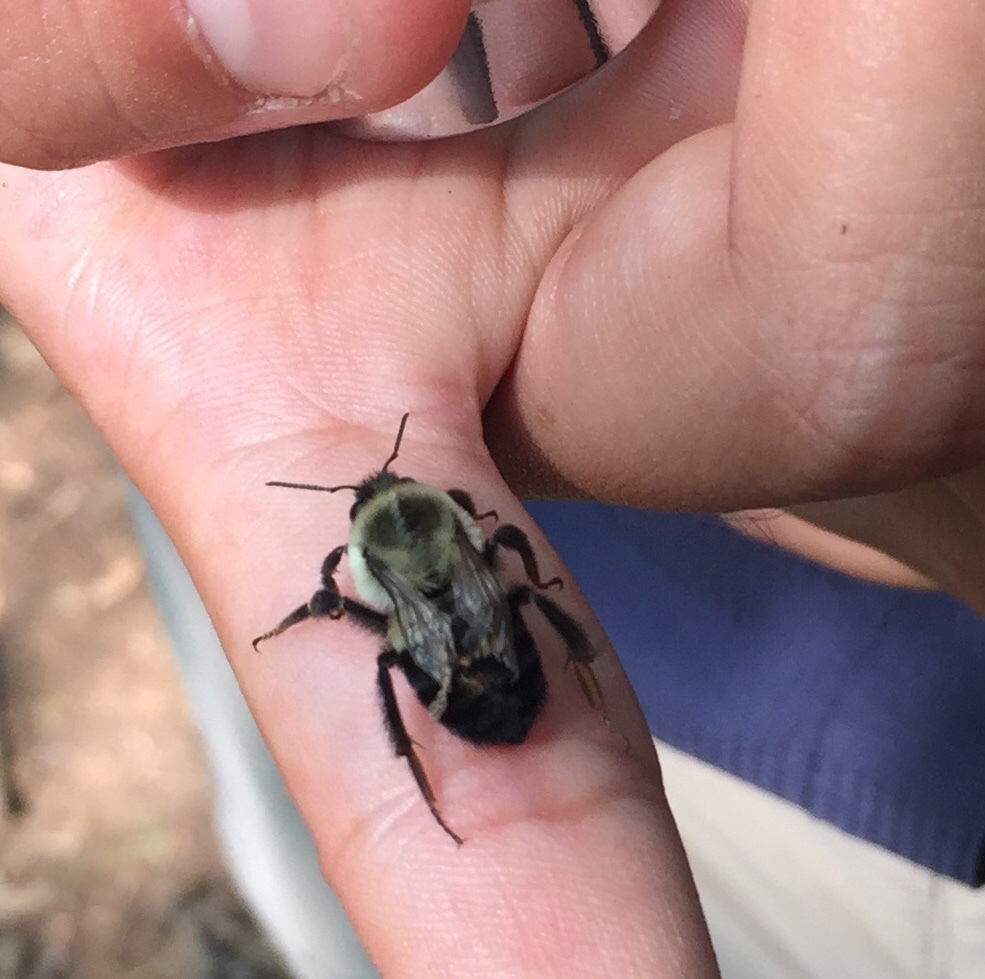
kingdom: Animalia
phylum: Arthropoda
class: Insecta
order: Hymenoptera
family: Apidae
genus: Bombus
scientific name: Bombus impatiens
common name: Common eastern bumble bee
